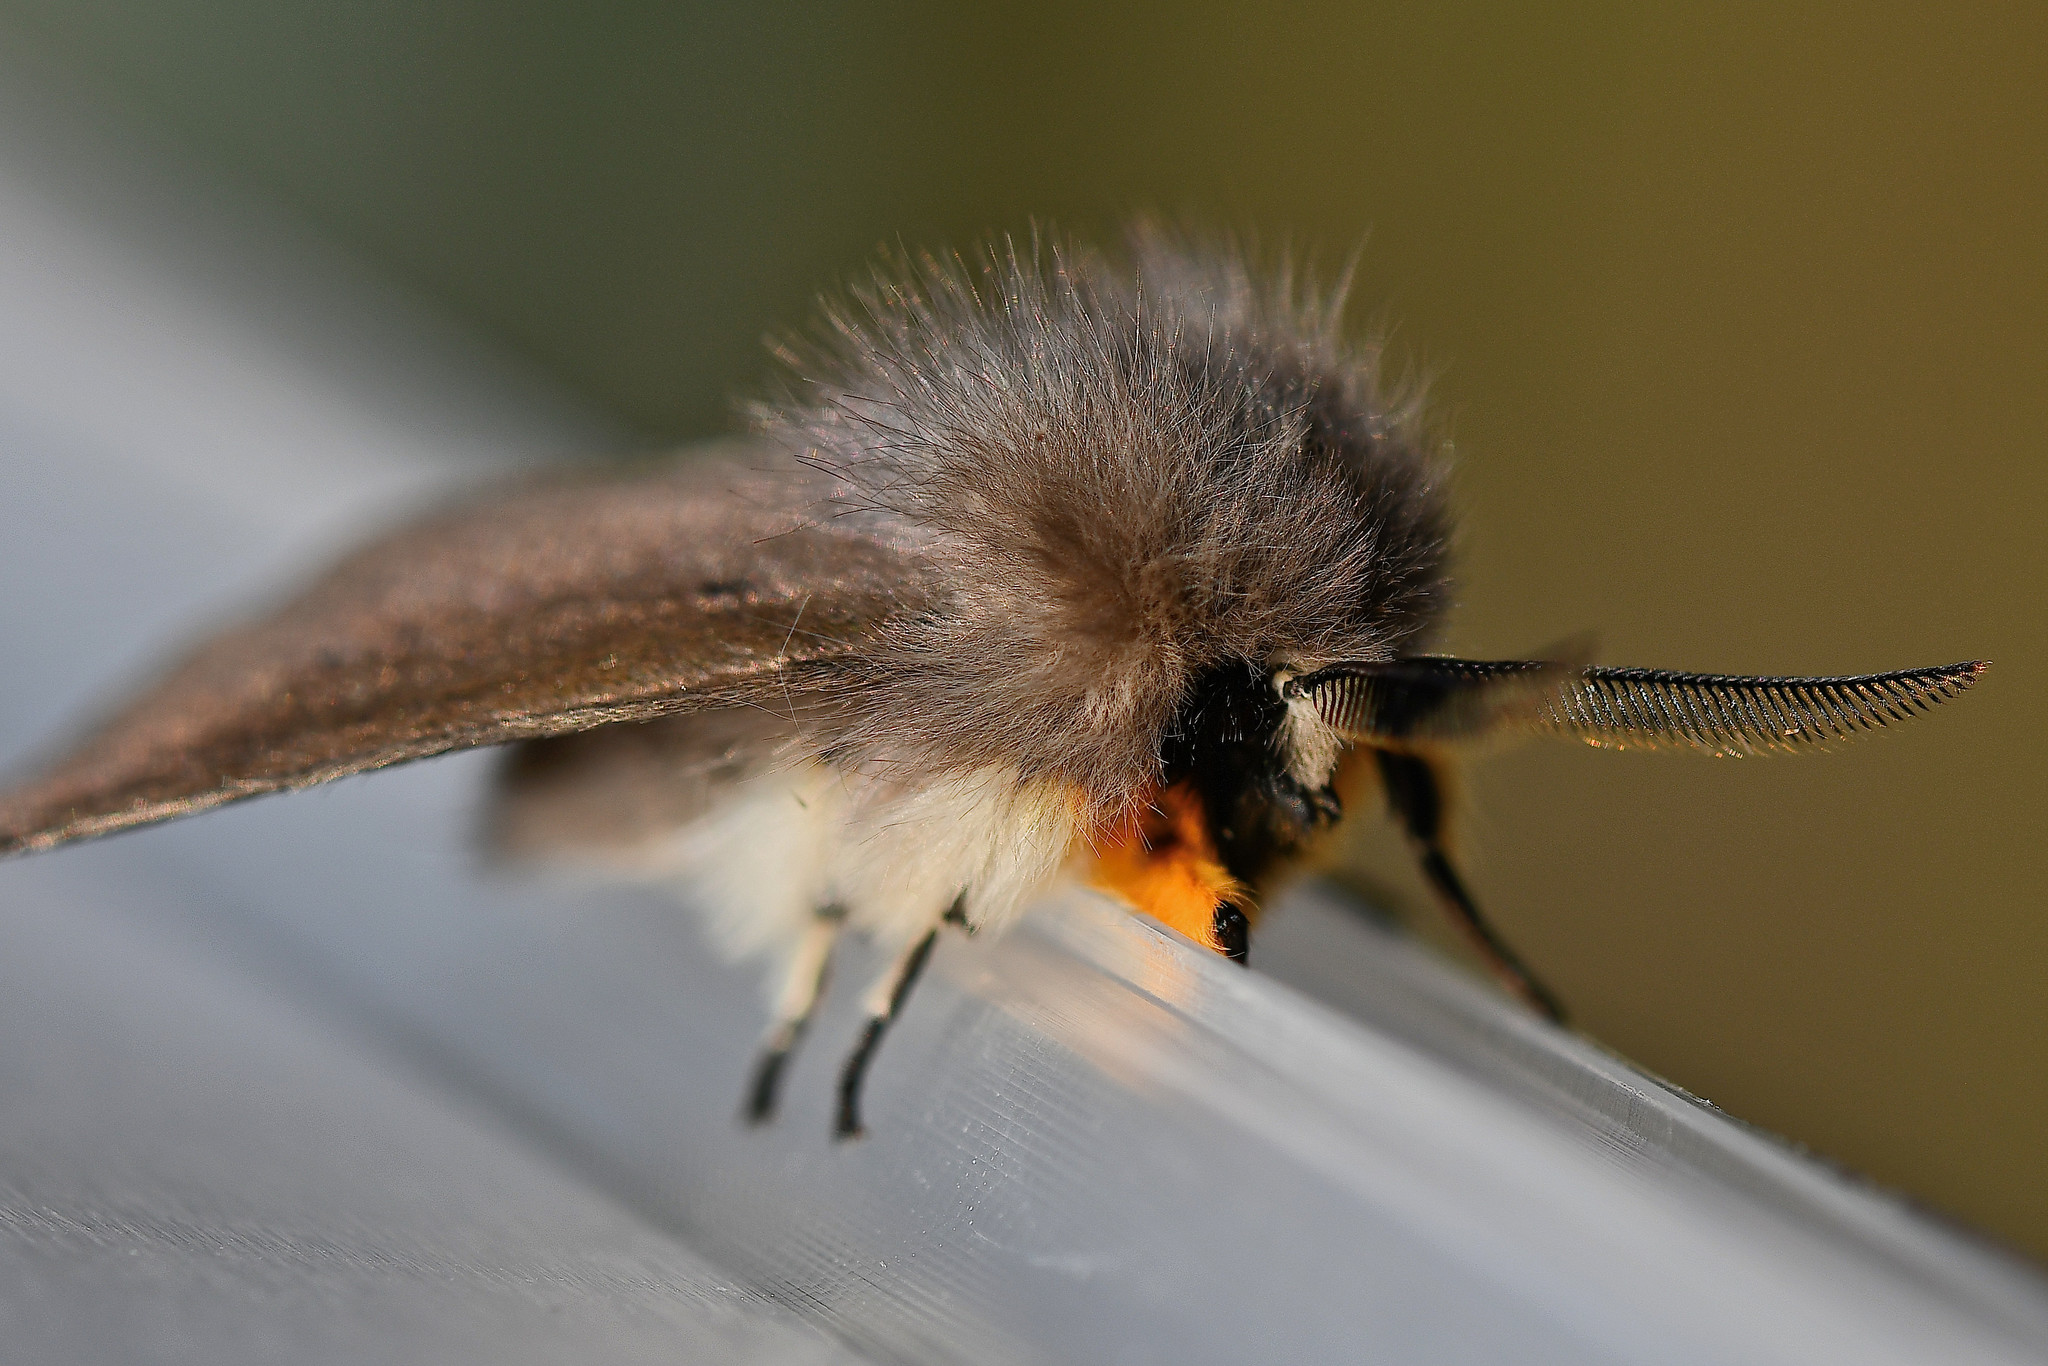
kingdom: Animalia
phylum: Arthropoda
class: Insecta
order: Lepidoptera
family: Erebidae
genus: Diaphora
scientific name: Diaphora mendica
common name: Muslin moth
